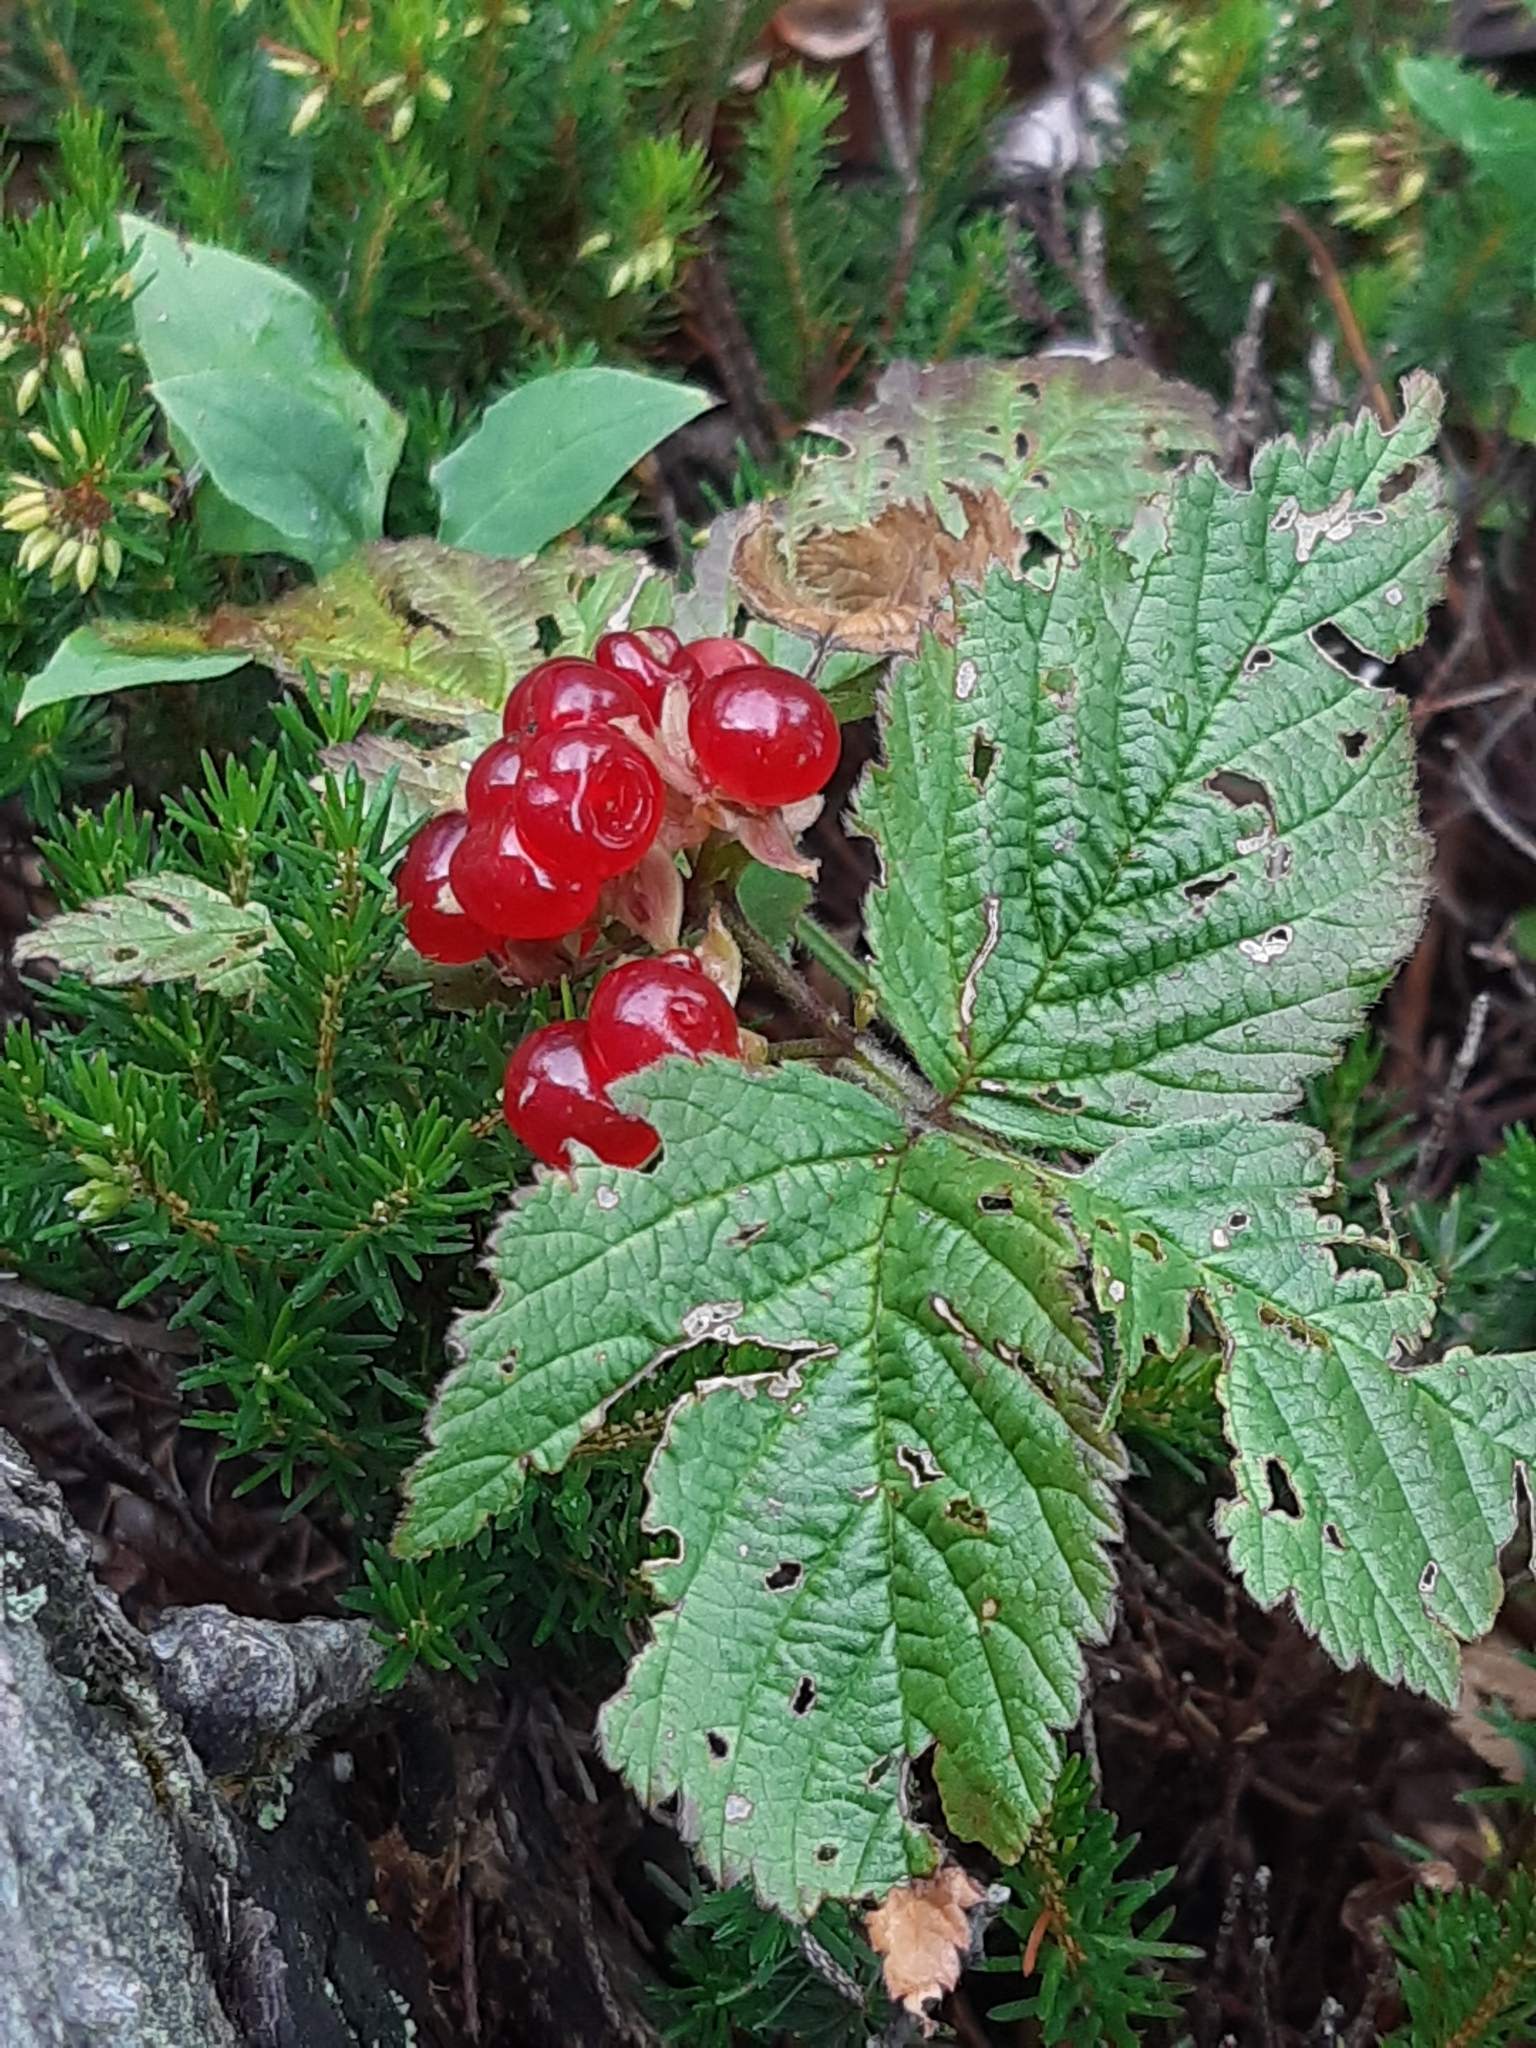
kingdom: Plantae
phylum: Tracheophyta
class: Magnoliopsida
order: Rosales
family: Rosaceae
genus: Rubus
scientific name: Rubus saxatilis
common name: Stone bramble
